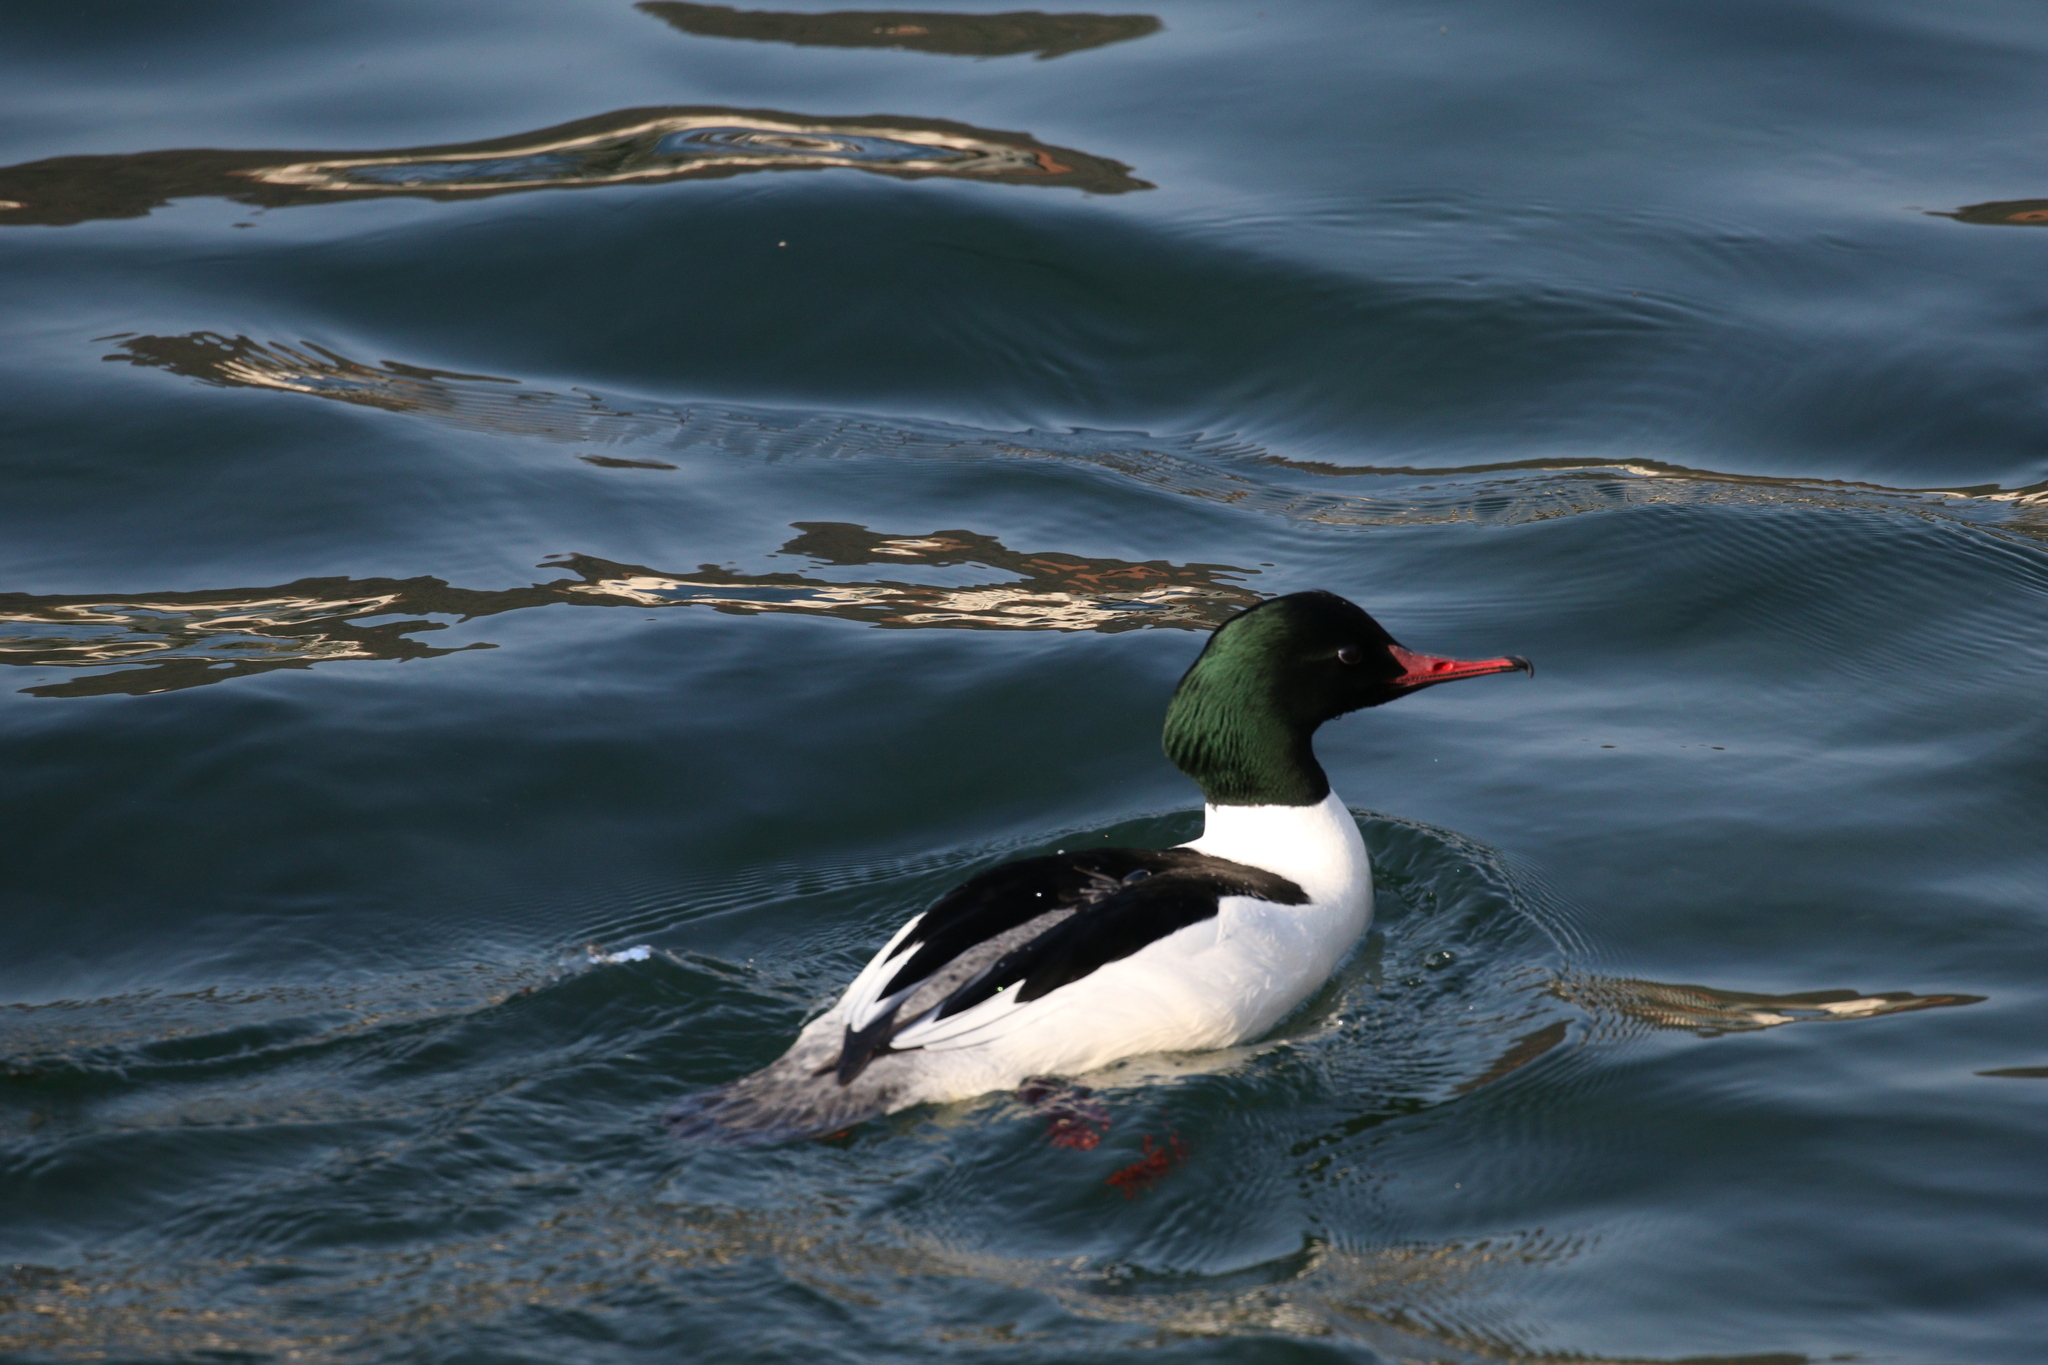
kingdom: Animalia
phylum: Chordata
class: Aves
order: Anseriformes
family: Anatidae
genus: Mergus
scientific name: Mergus merganser
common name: Common merganser
